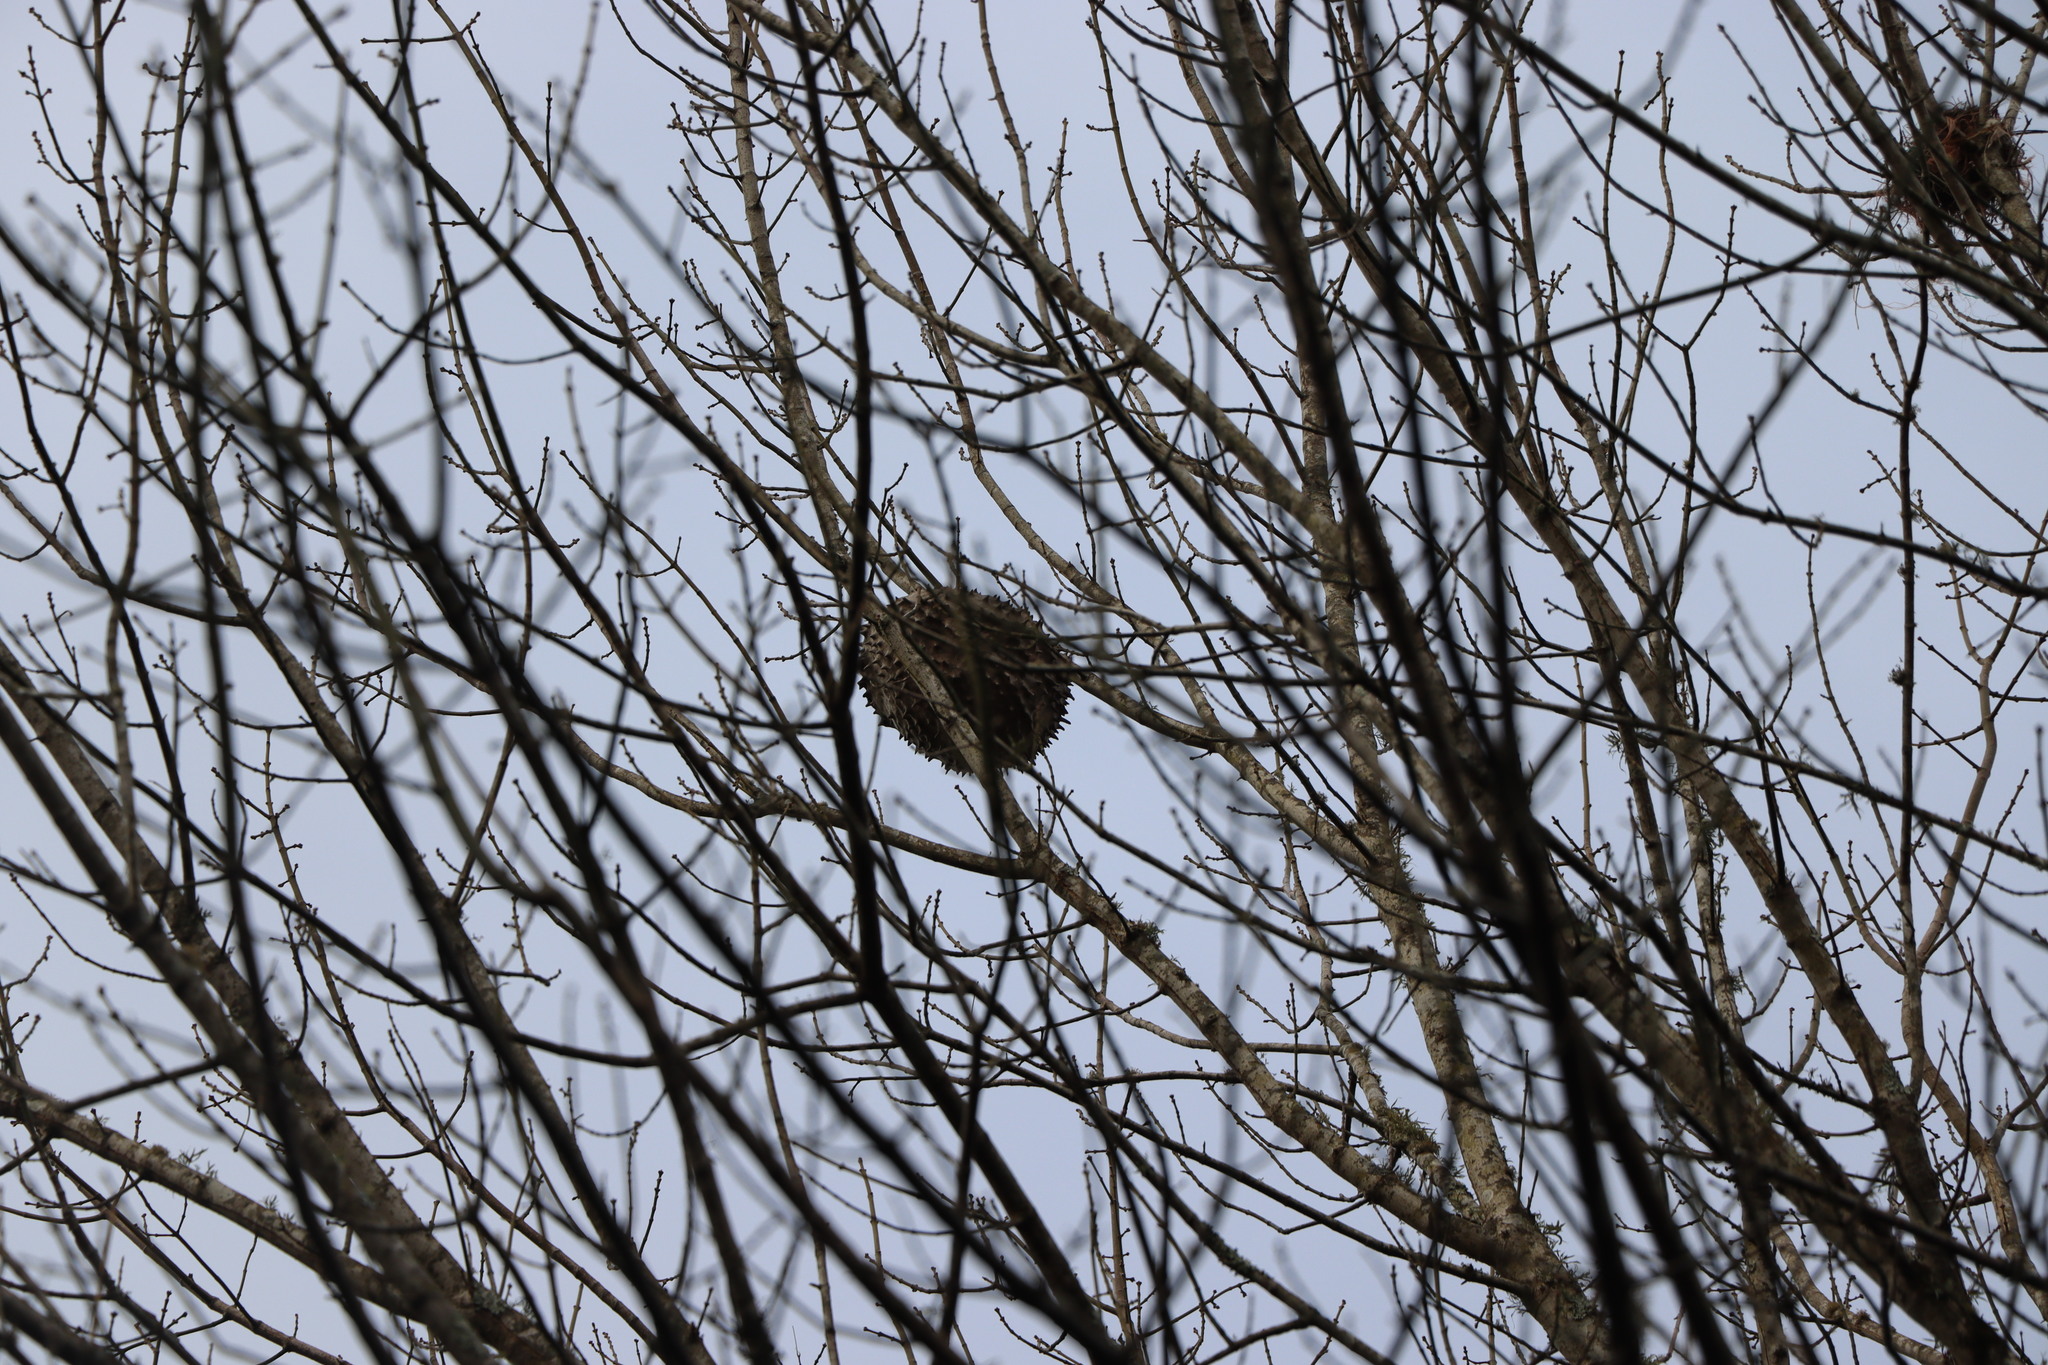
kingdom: Animalia
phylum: Arthropoda
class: Insecta
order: Hymenoptera
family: Eumenidae
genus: Polybia
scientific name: Polybia scutellaris
